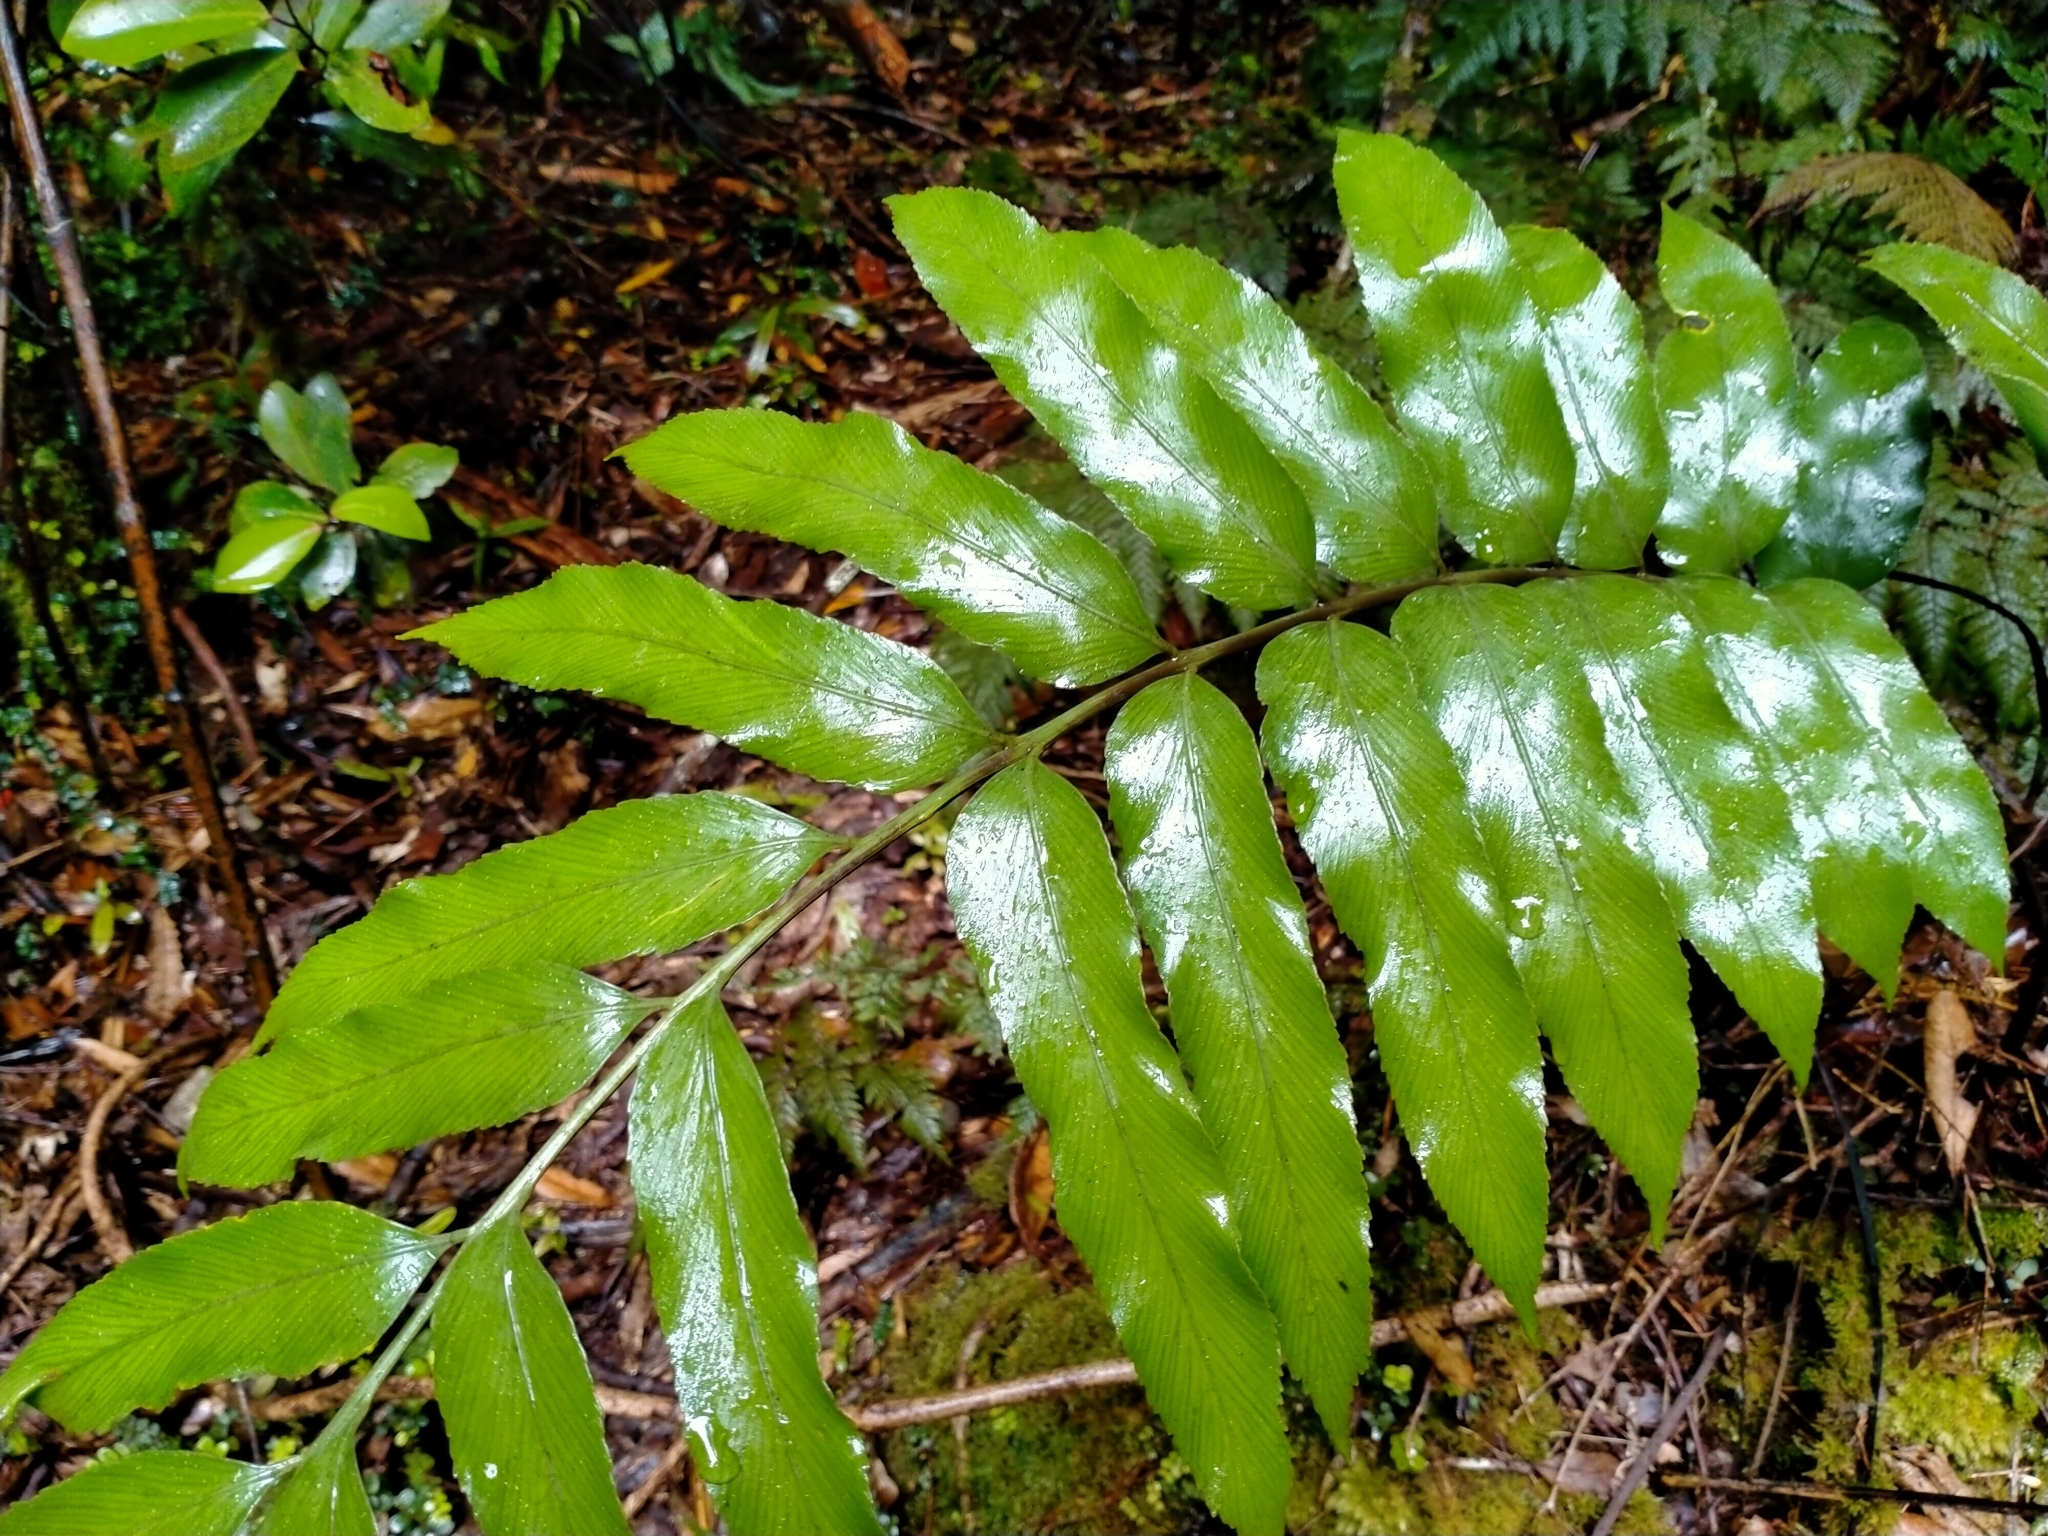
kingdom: Plantae
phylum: Tracheophyta
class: Polypodiopsida
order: Polypodiales
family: Aspleniaceae
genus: Asplenium
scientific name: Asplenium oblongifolium
